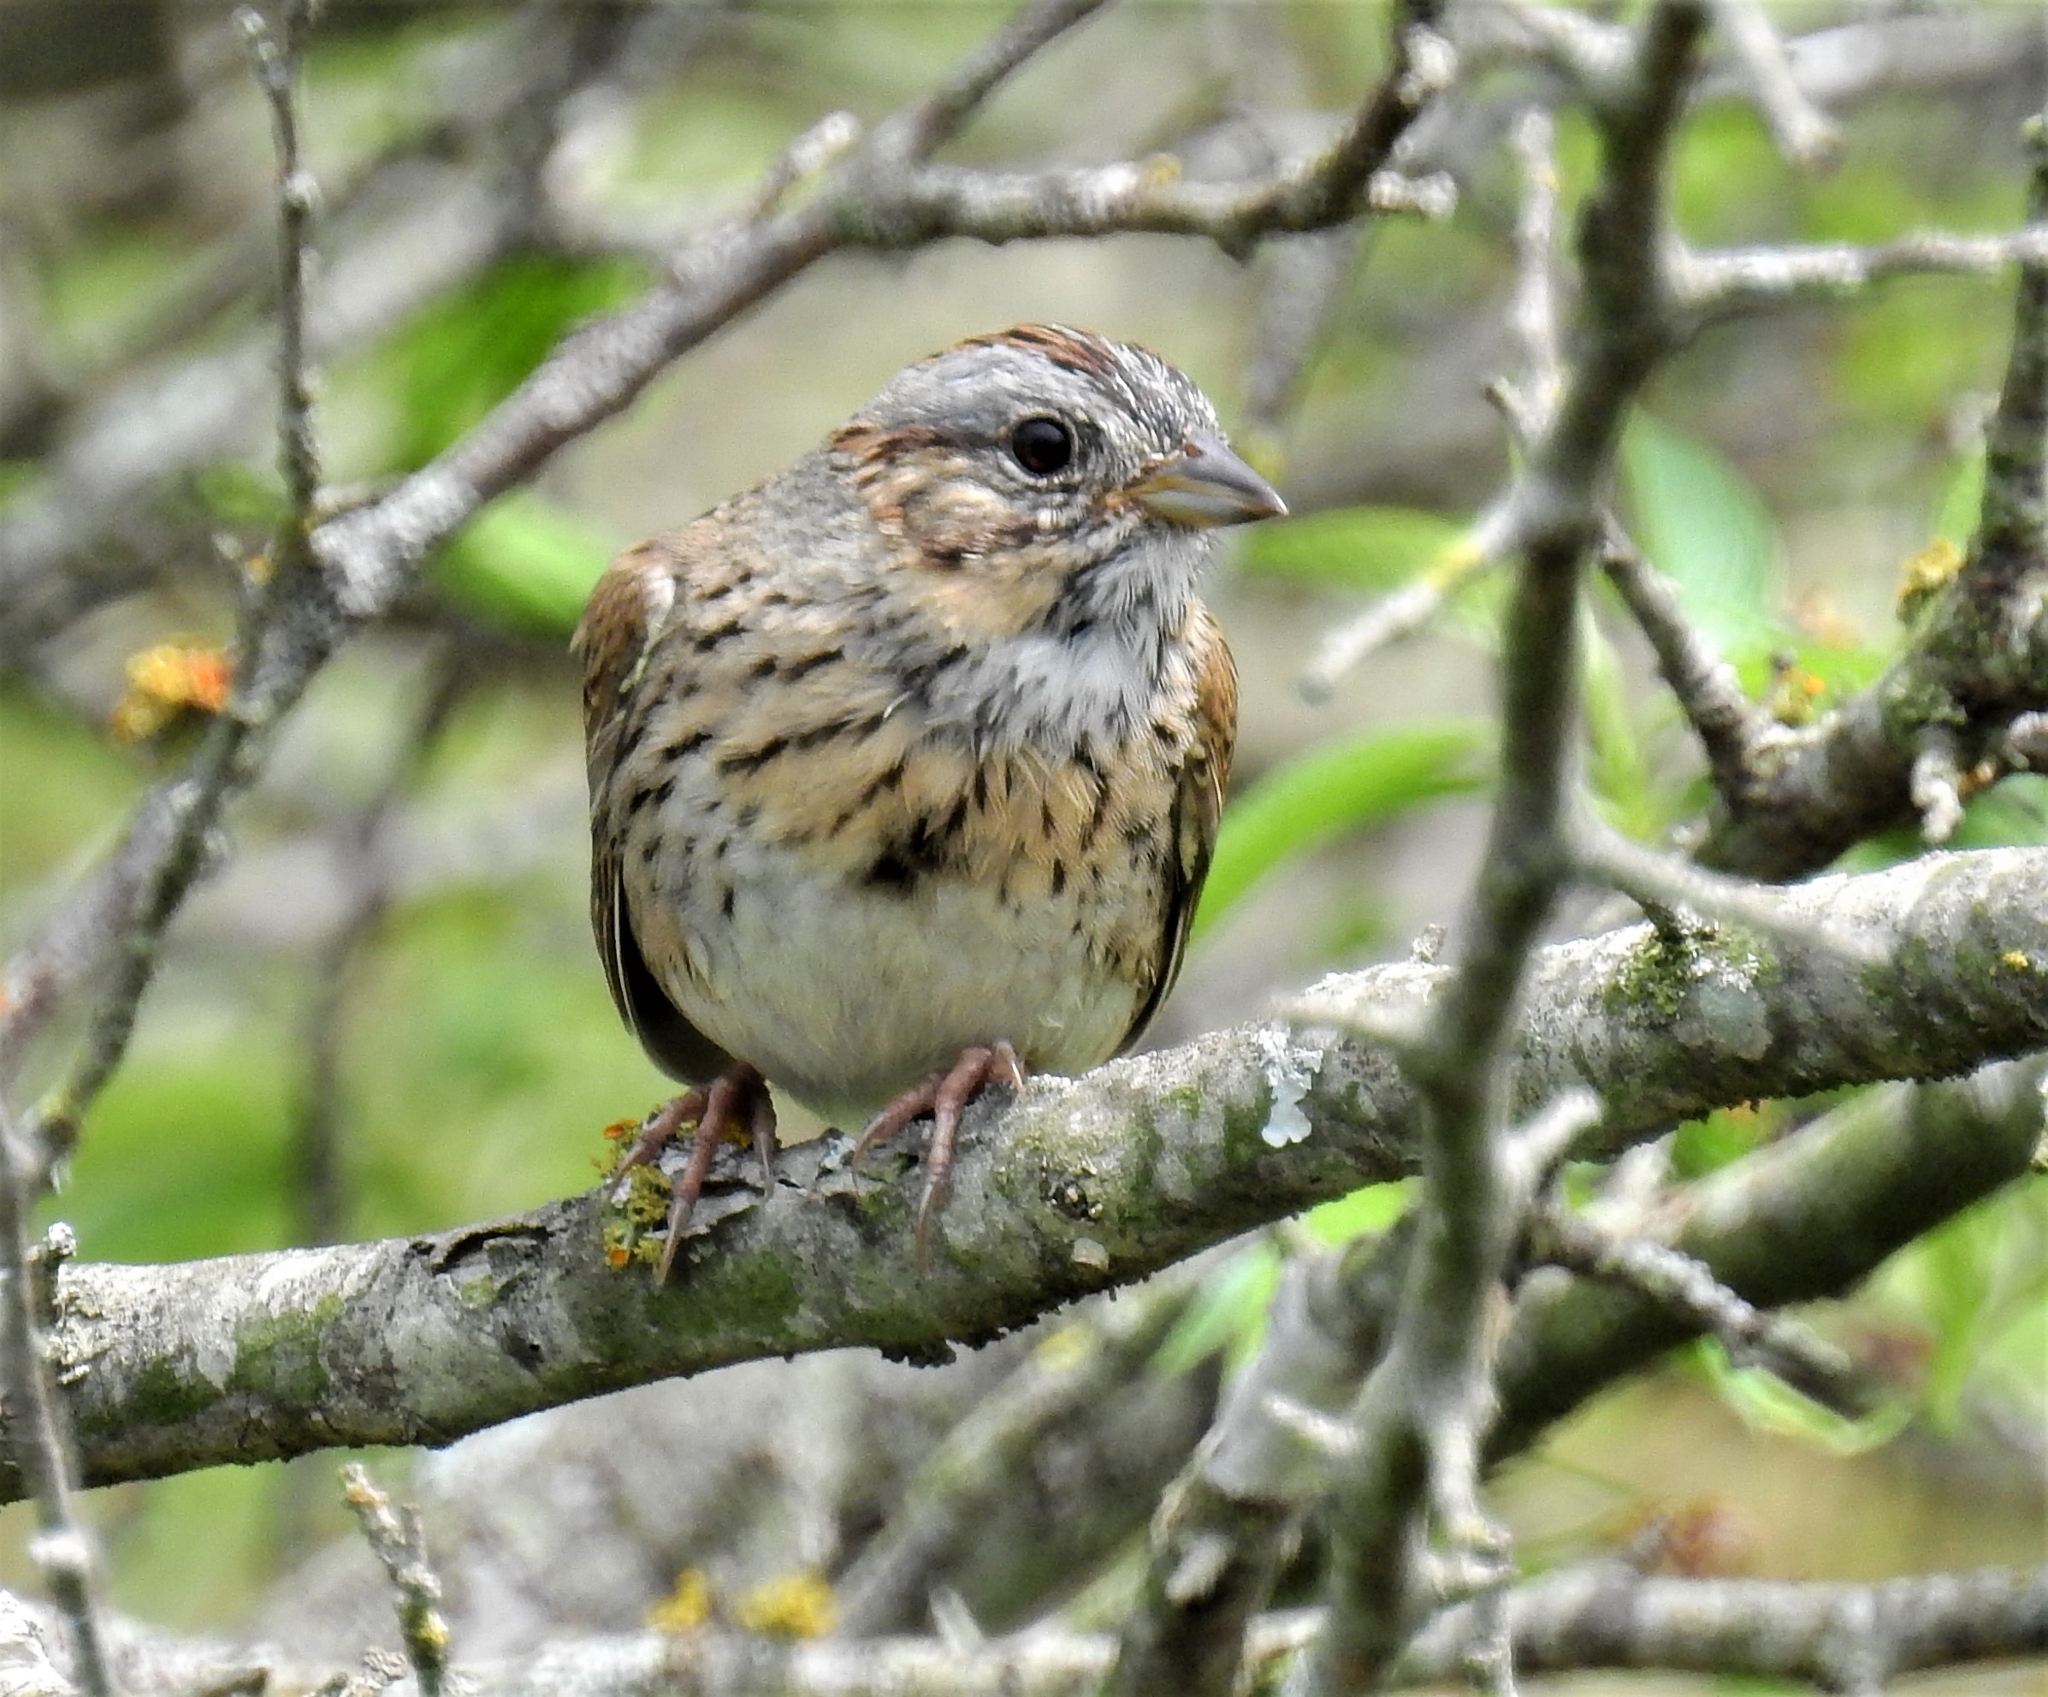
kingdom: Animalia
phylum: Chordata
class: Aves
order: Passeriformes
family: Passerellidae
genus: Melospiza
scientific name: Melospiza lincolnii
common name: Lincoln's sparrow
